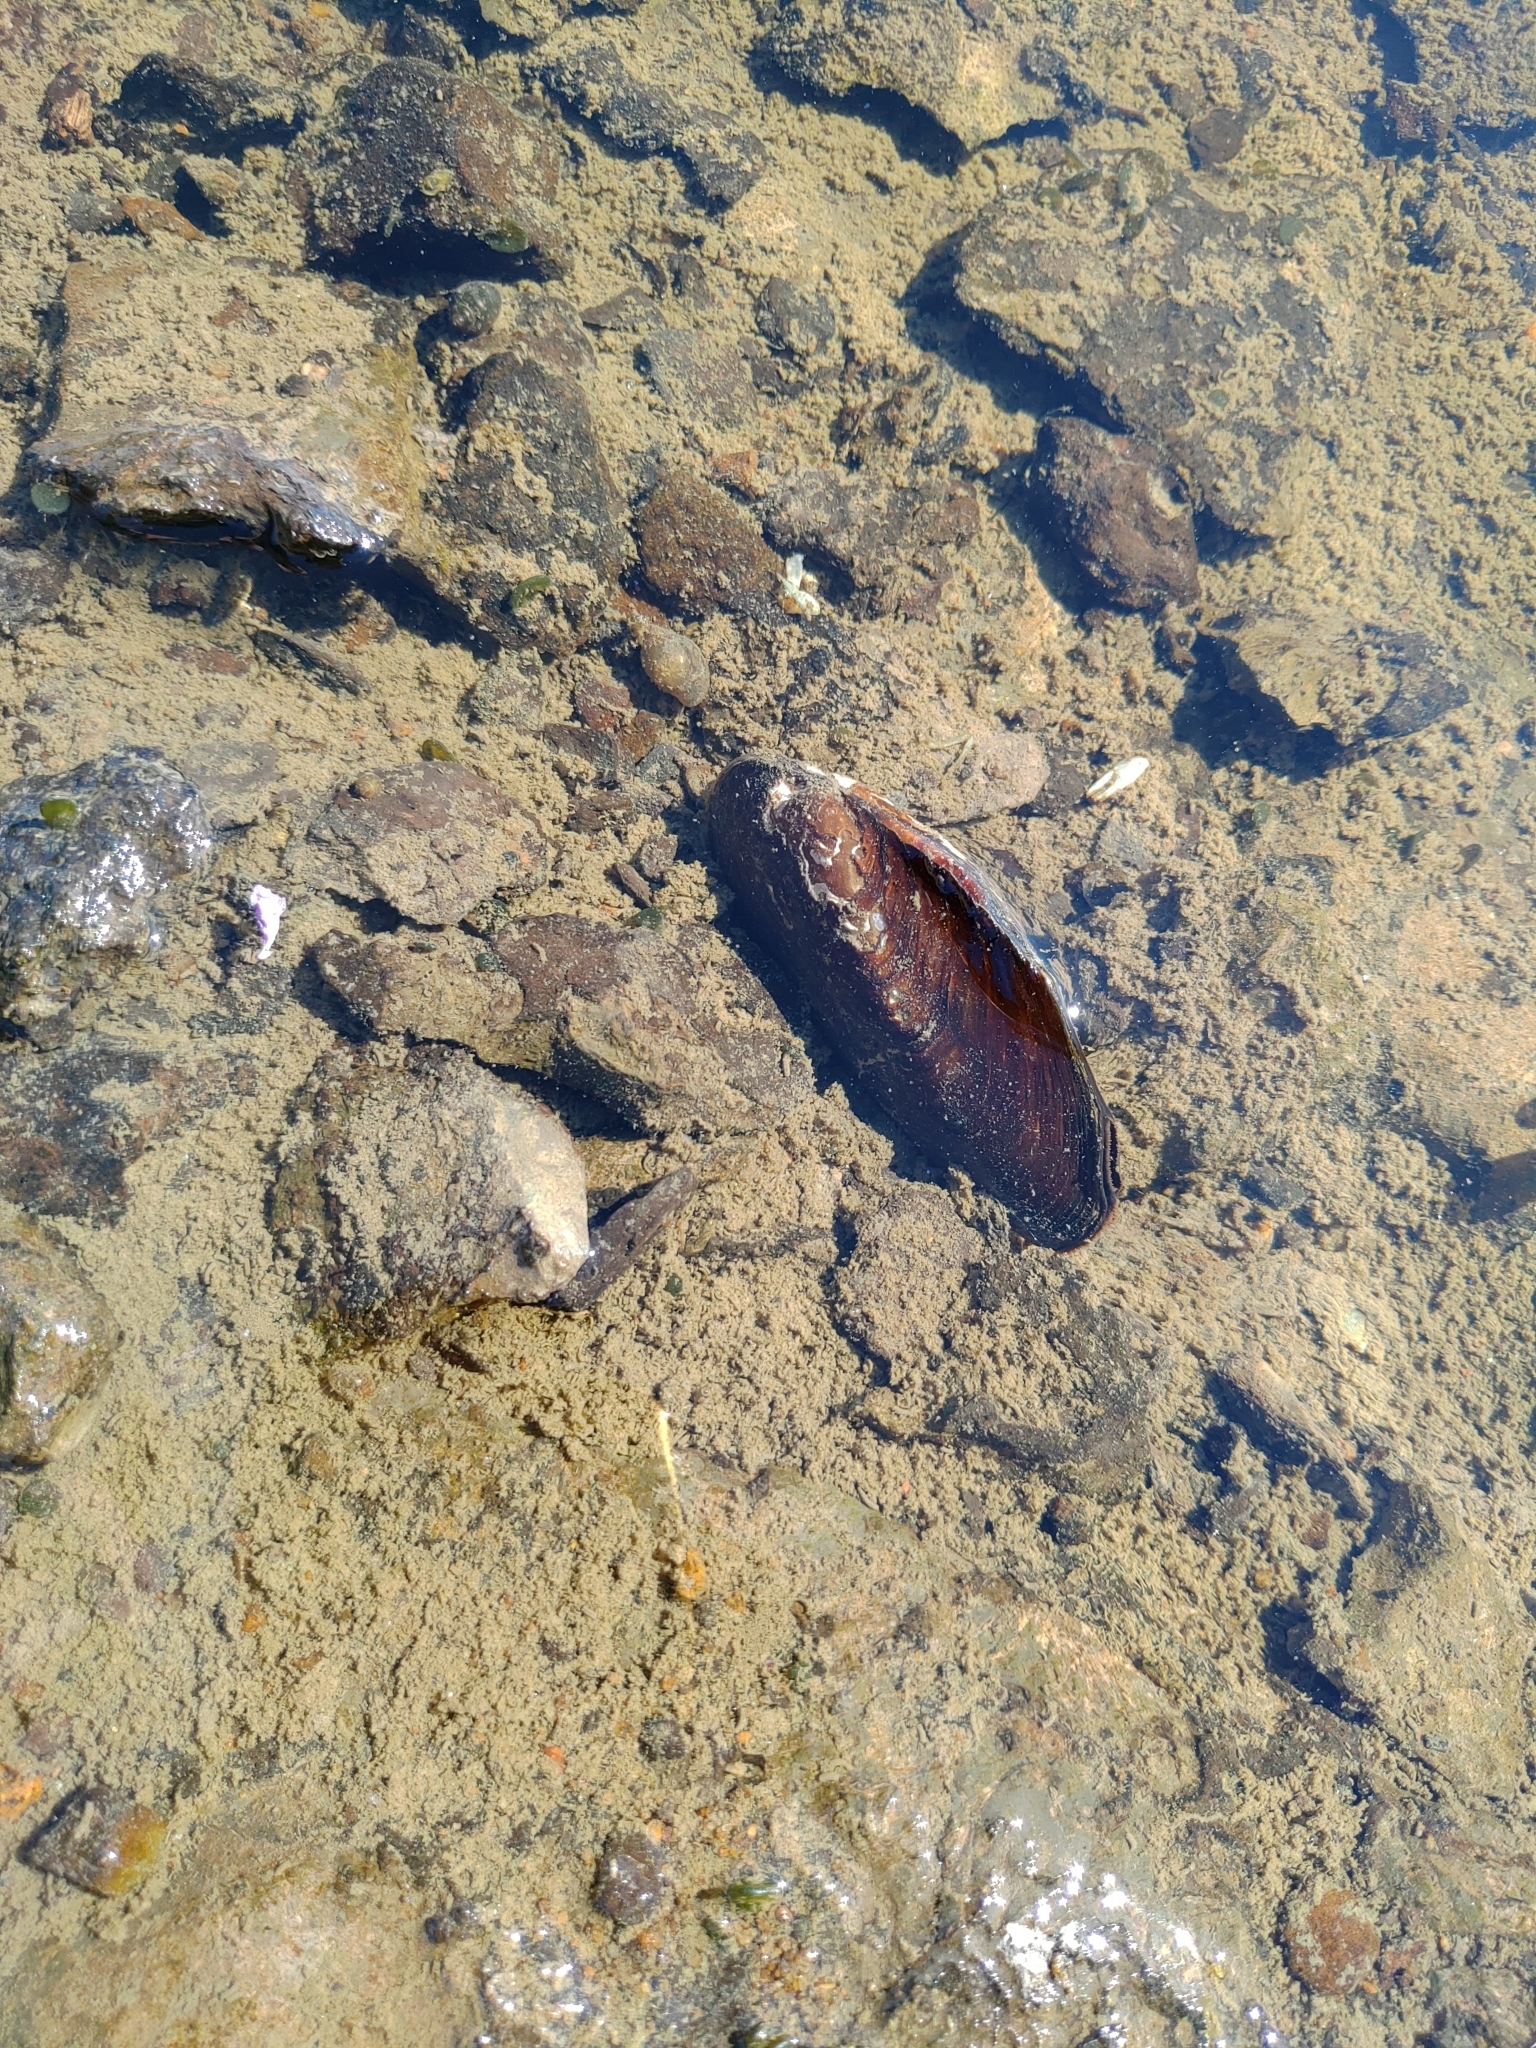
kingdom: Animalia
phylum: Mollusca
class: Bivalvia
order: Unionida
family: Unionidae
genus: Elliptio
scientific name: Elliptio complanata
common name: Eastern elliptio
